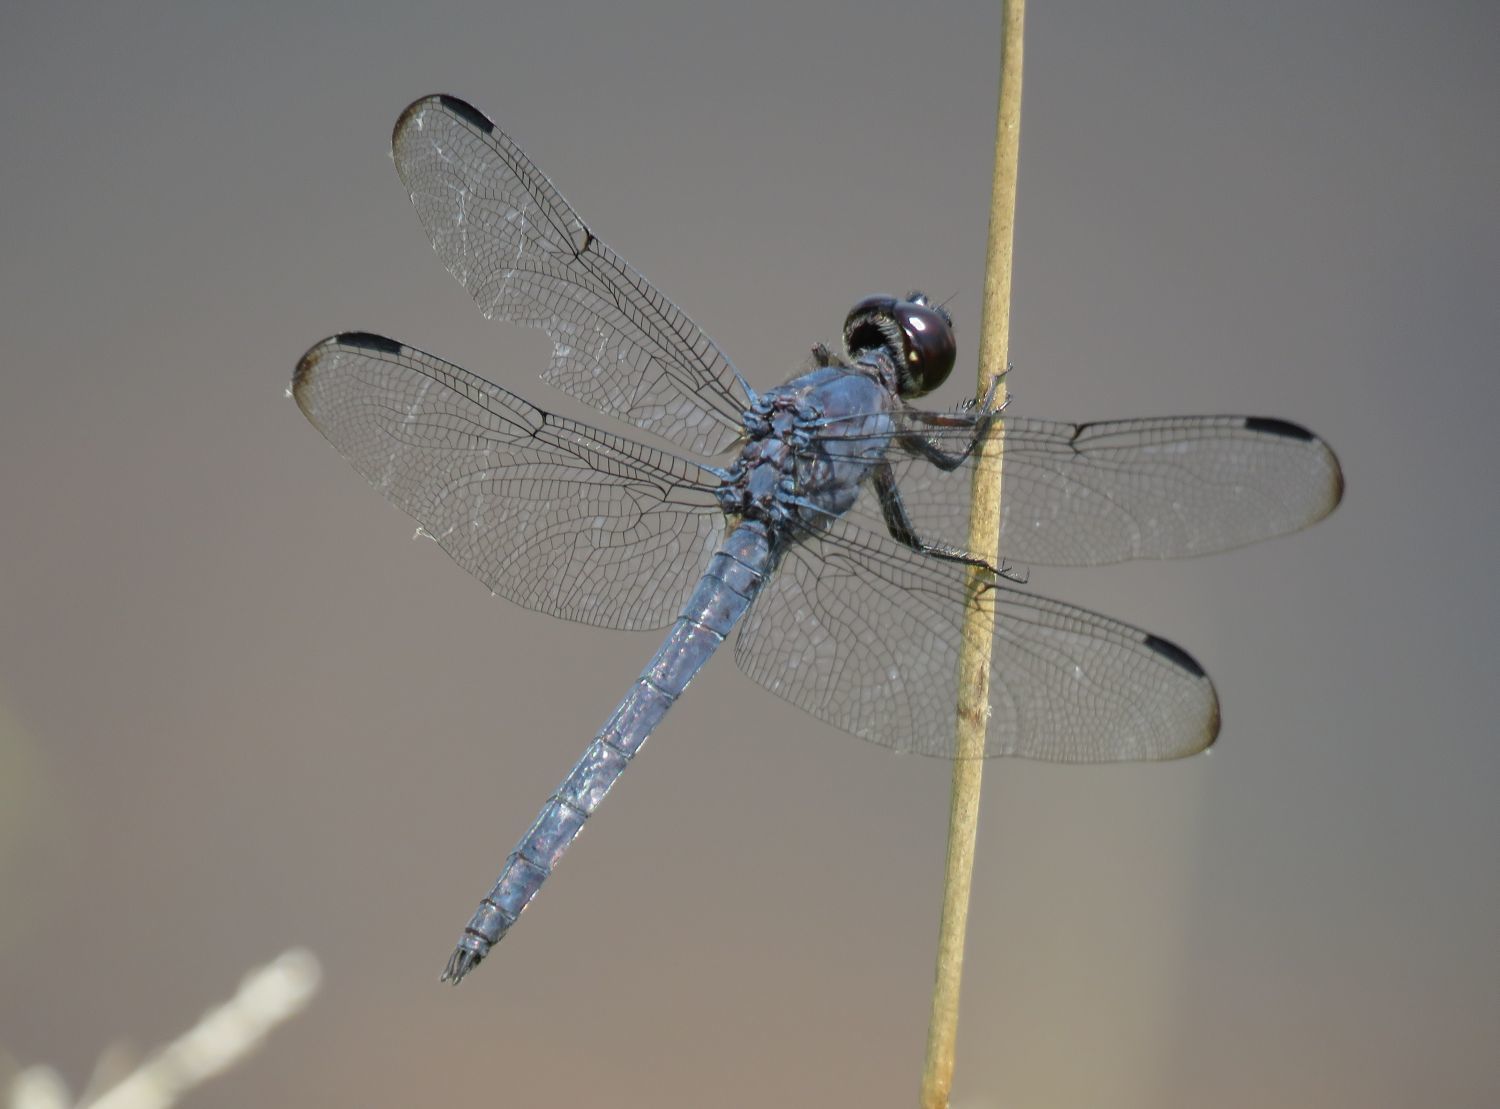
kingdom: Animalia
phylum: Arthropoda
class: Insecta
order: Odonata
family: Libellulidae
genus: Libellula
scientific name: Libellula incesta
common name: Slaty skimmer
